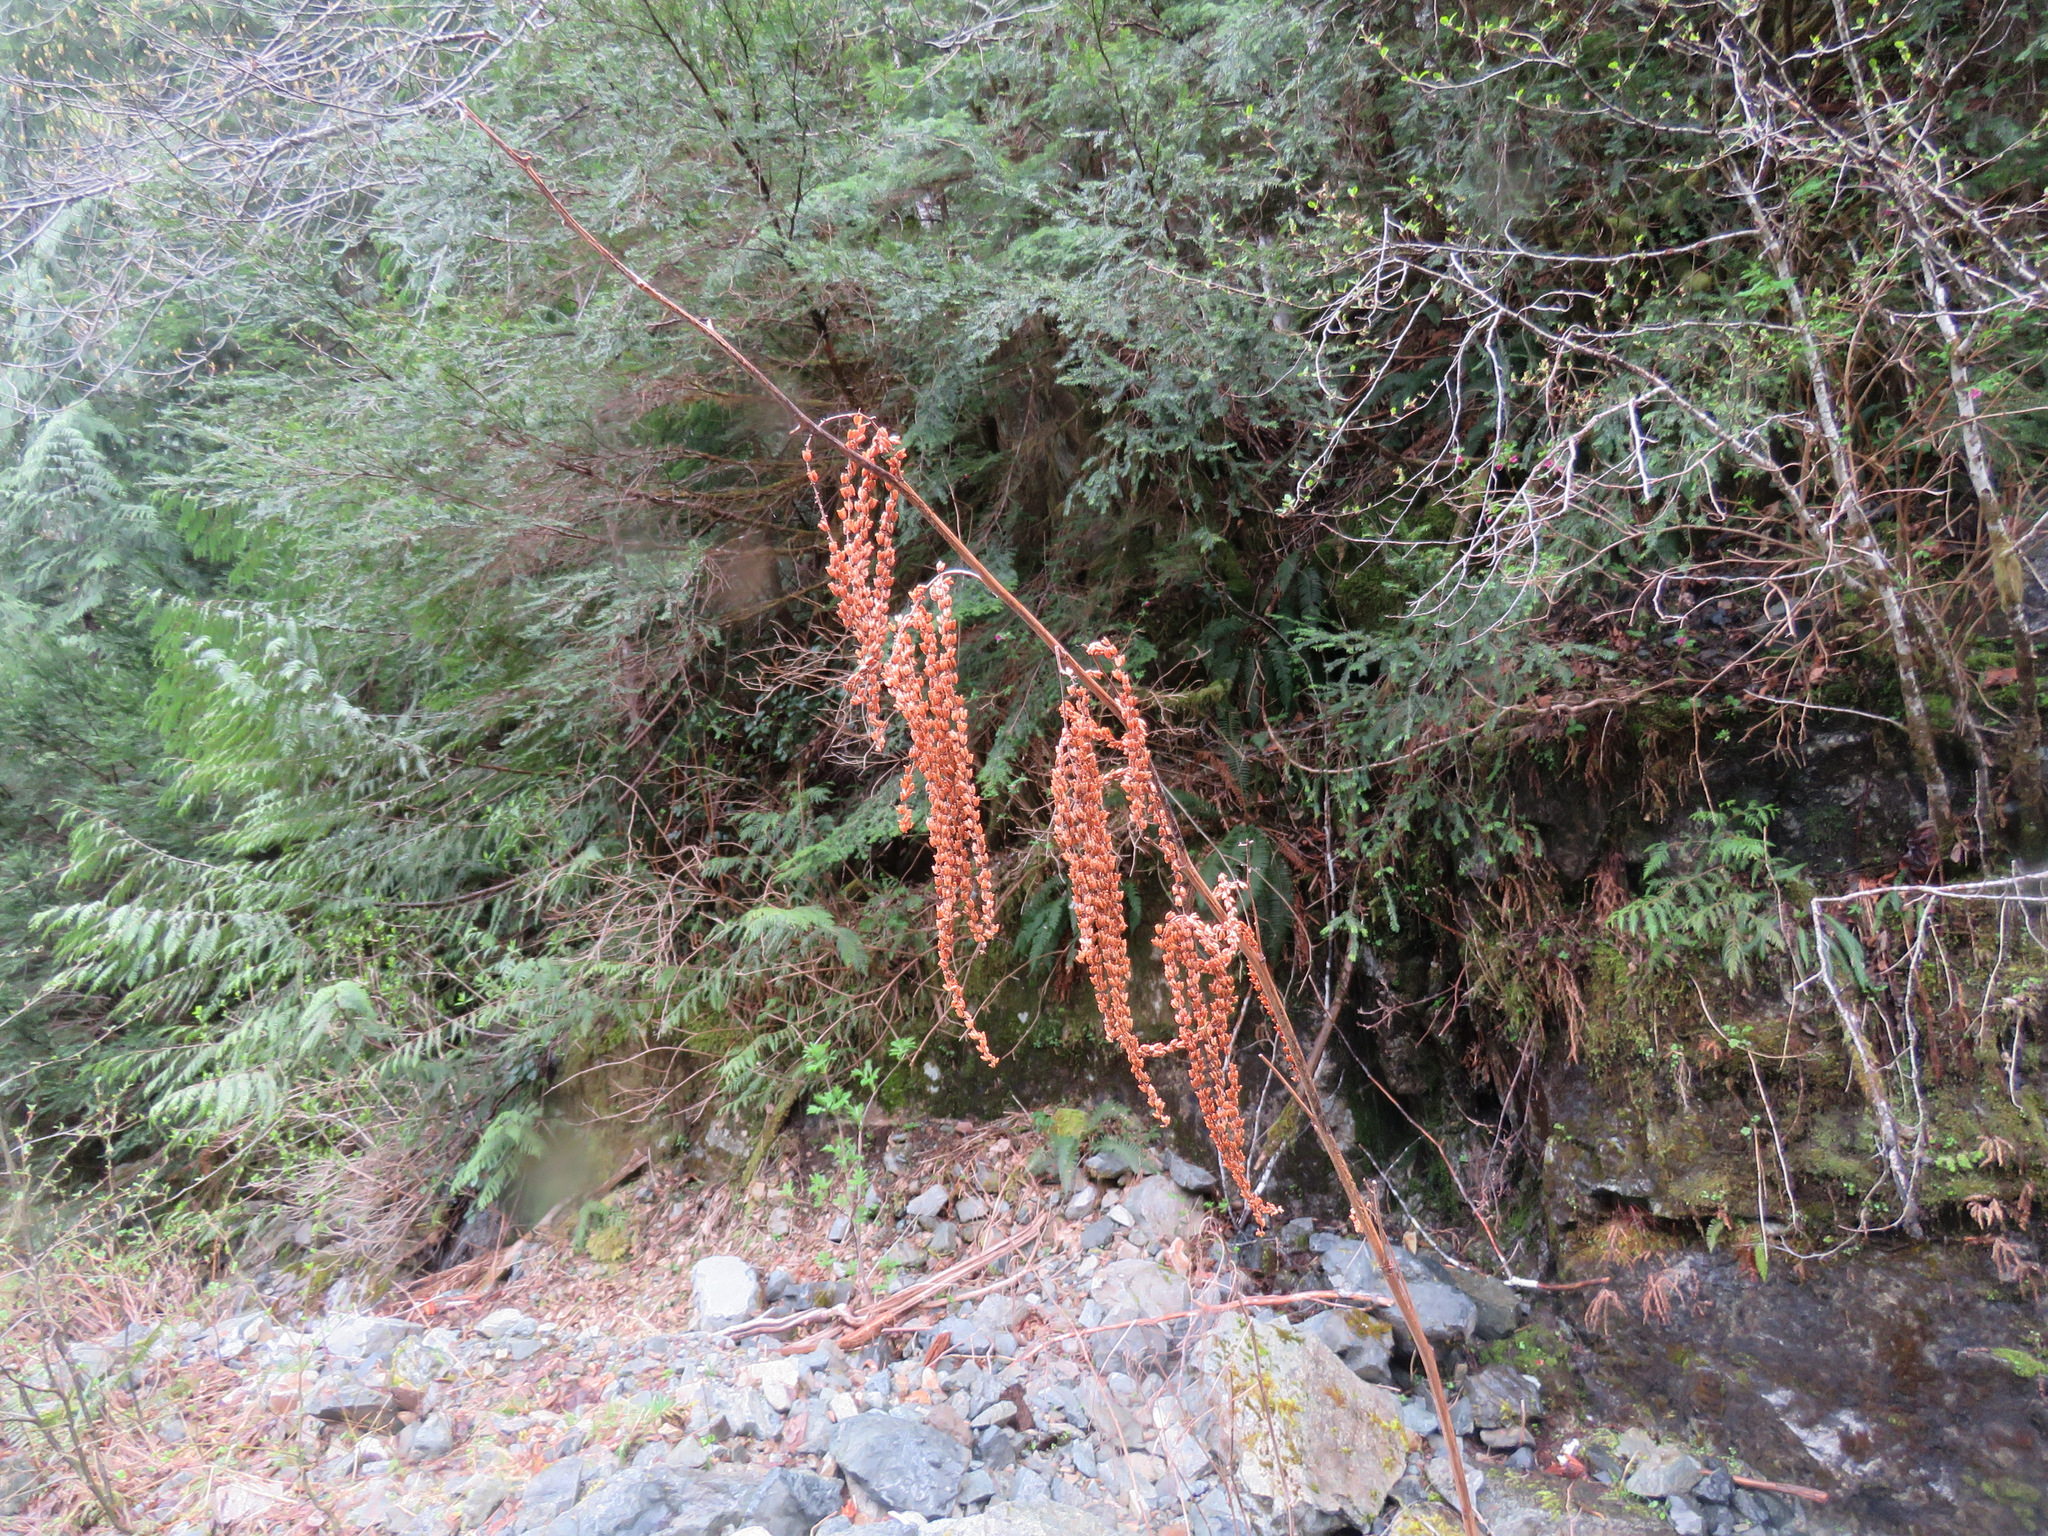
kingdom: Plantae
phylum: Tracheophyta
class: Magnoliopsida
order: Rosales
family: Rosaceae
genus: Aruncus
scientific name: Aruncus dioicus
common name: Buck's-beard
